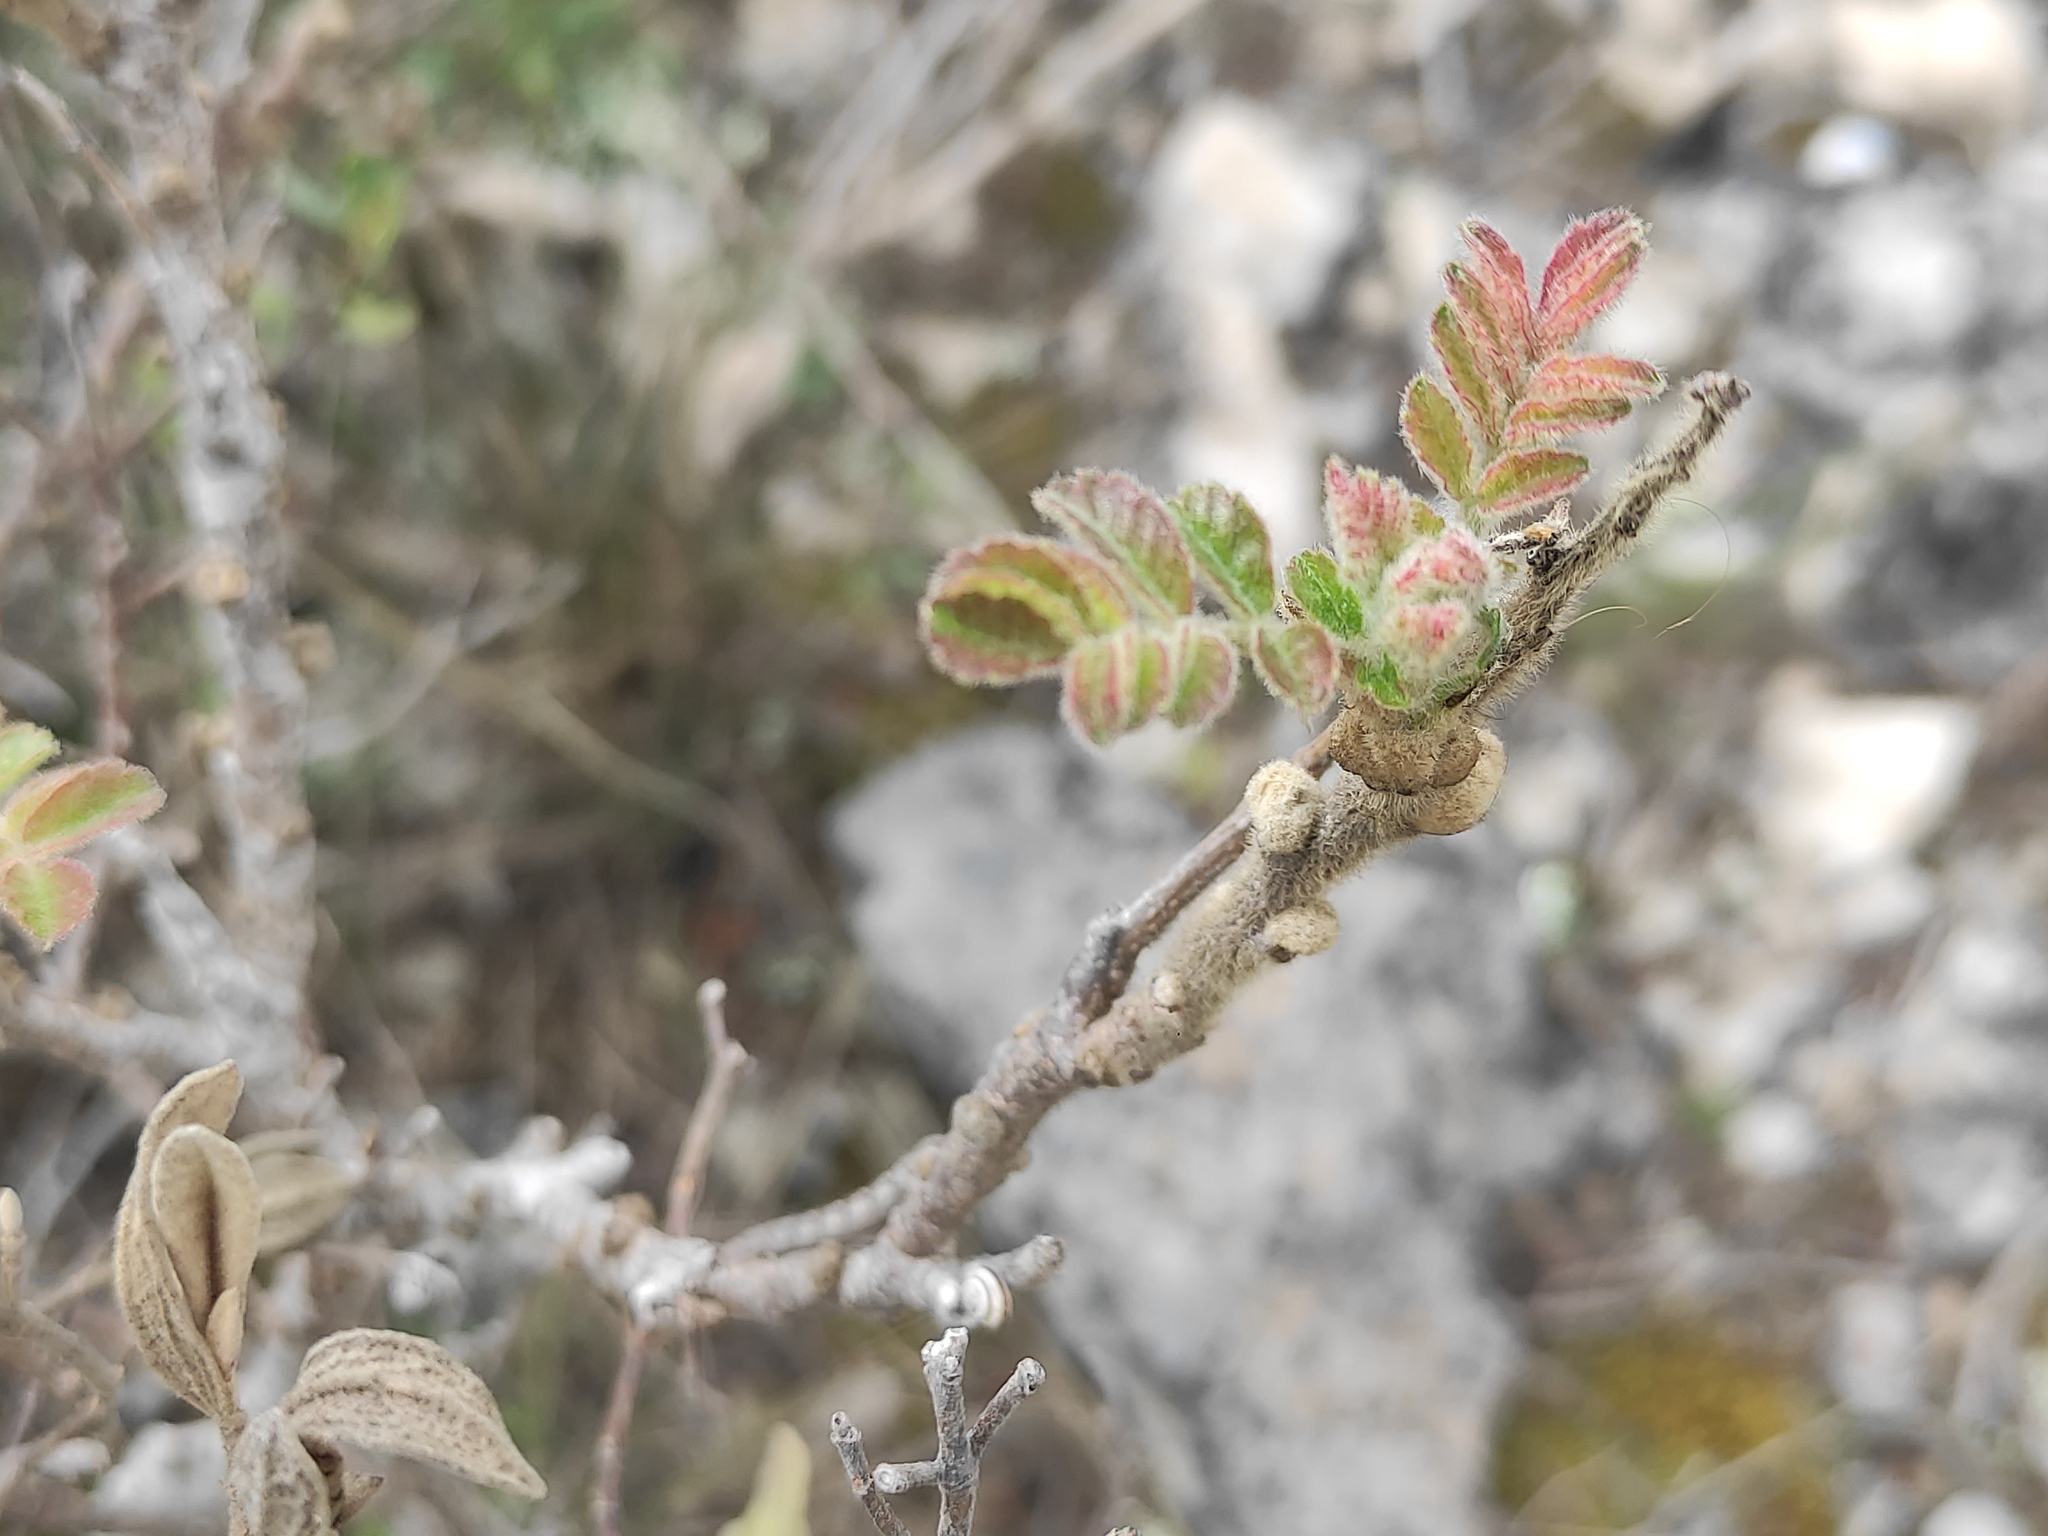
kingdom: Plantae
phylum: Tracheophyta
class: Magnoliopsida
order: Sapindales
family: Anacardiaceae
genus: Rhus
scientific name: Rhus coriaria
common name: Tanner's sumach
